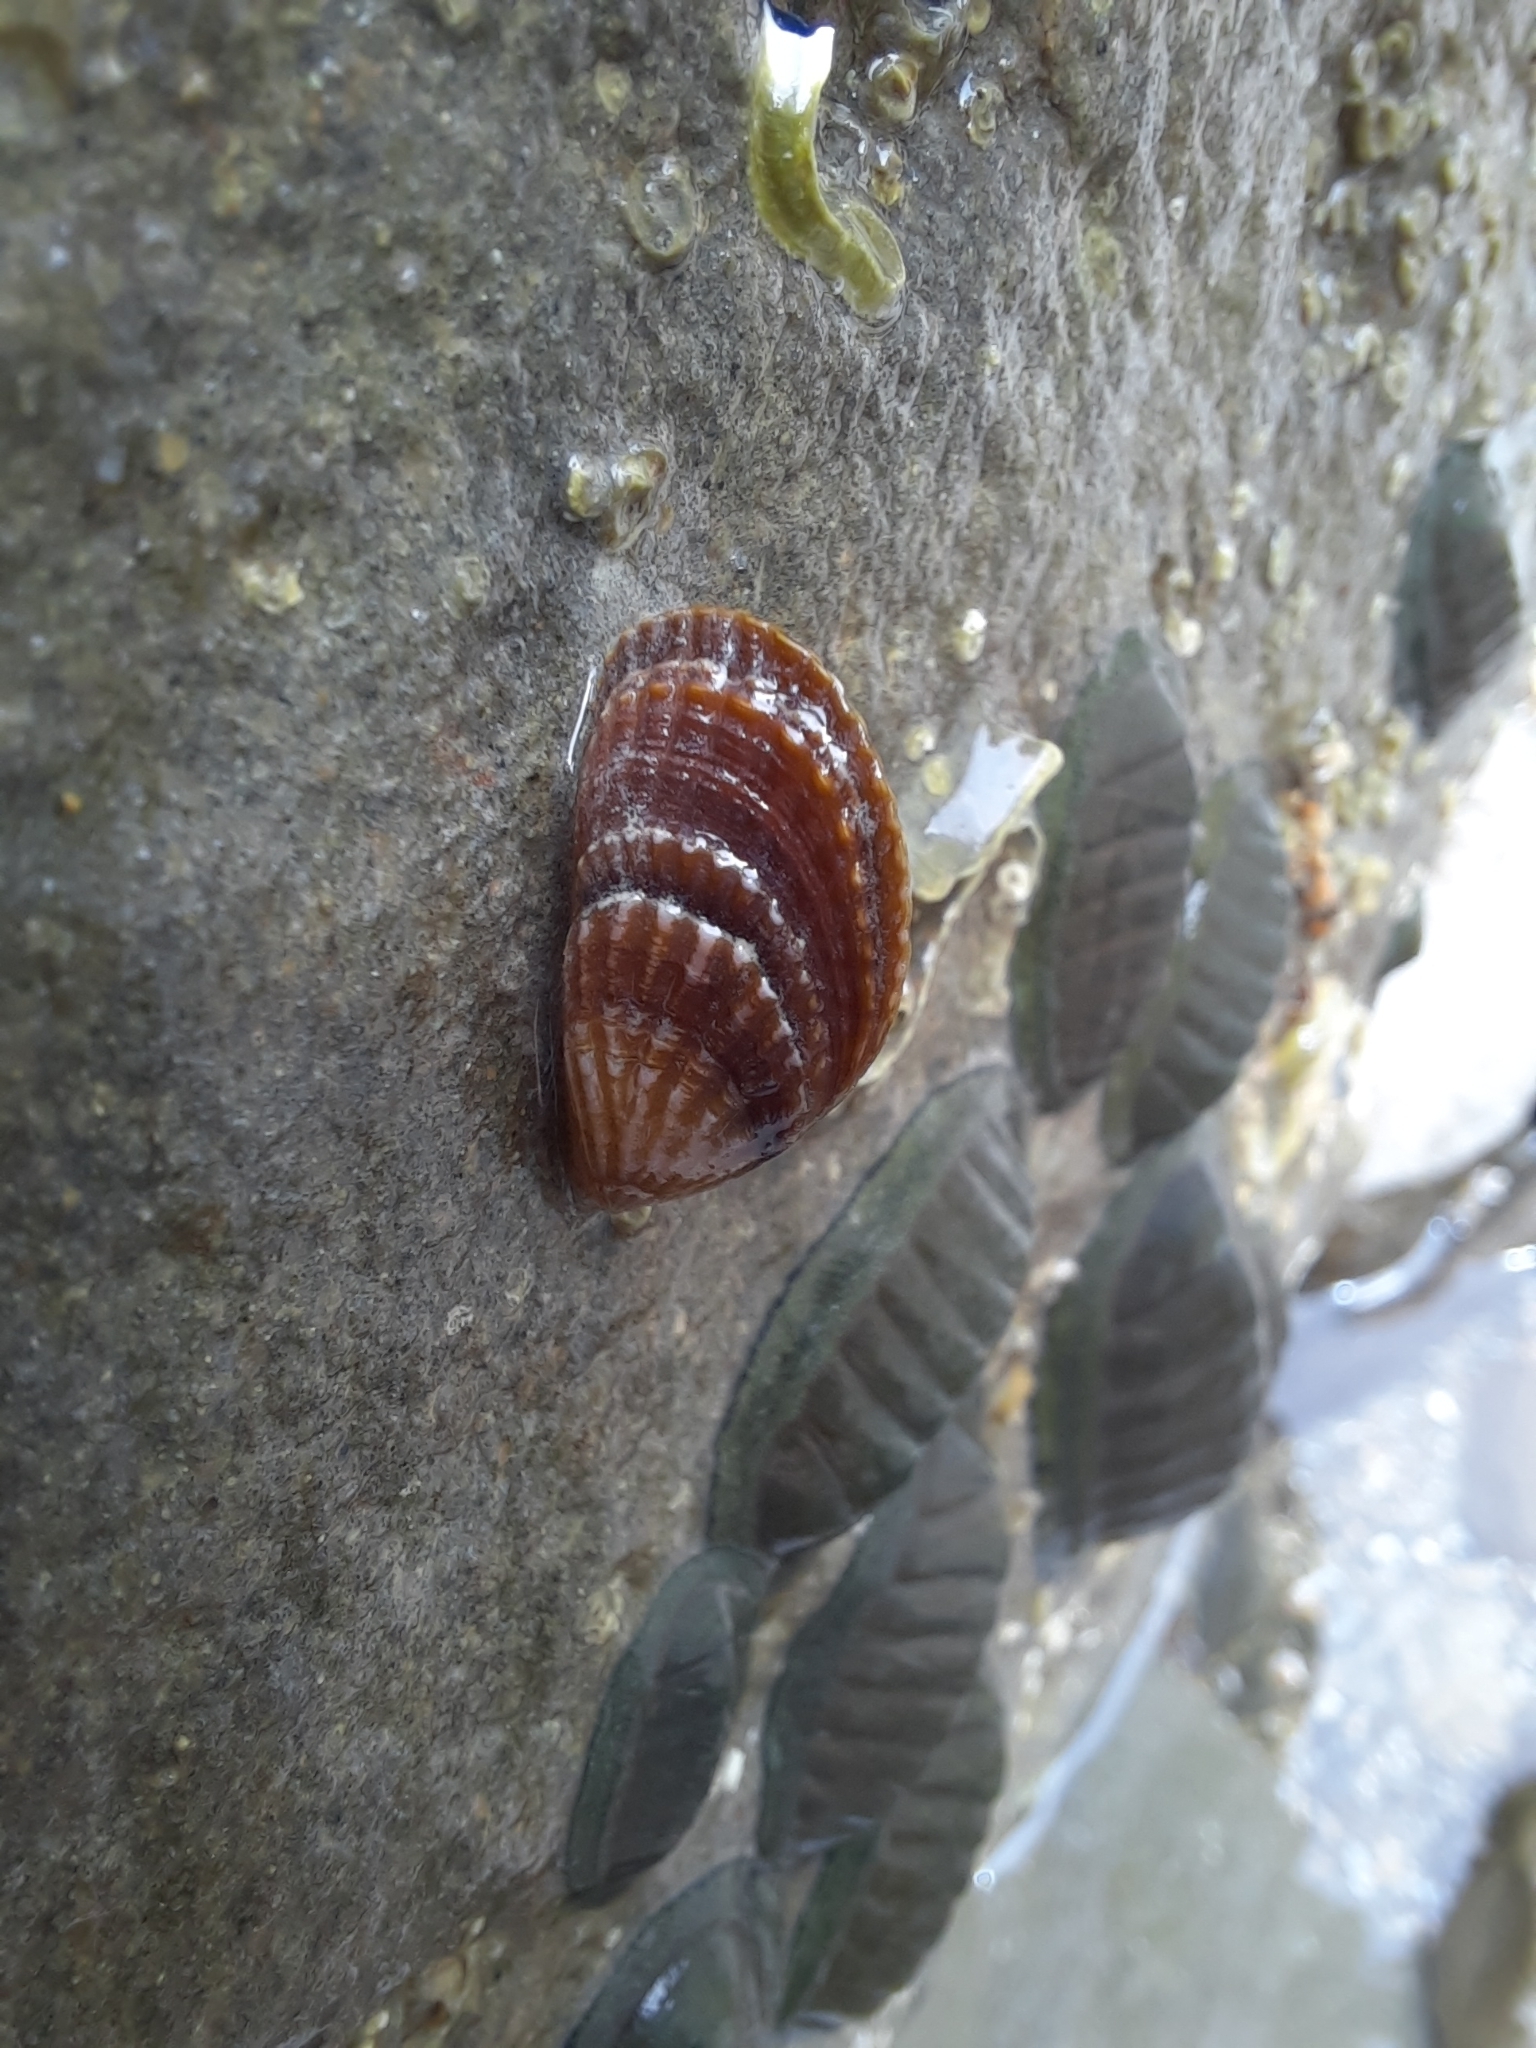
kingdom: Animalia
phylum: Mollusca
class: Bivalvia
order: Mytilida
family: Mytilidae
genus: Aulacomya
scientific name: Aulacomya maoriana
